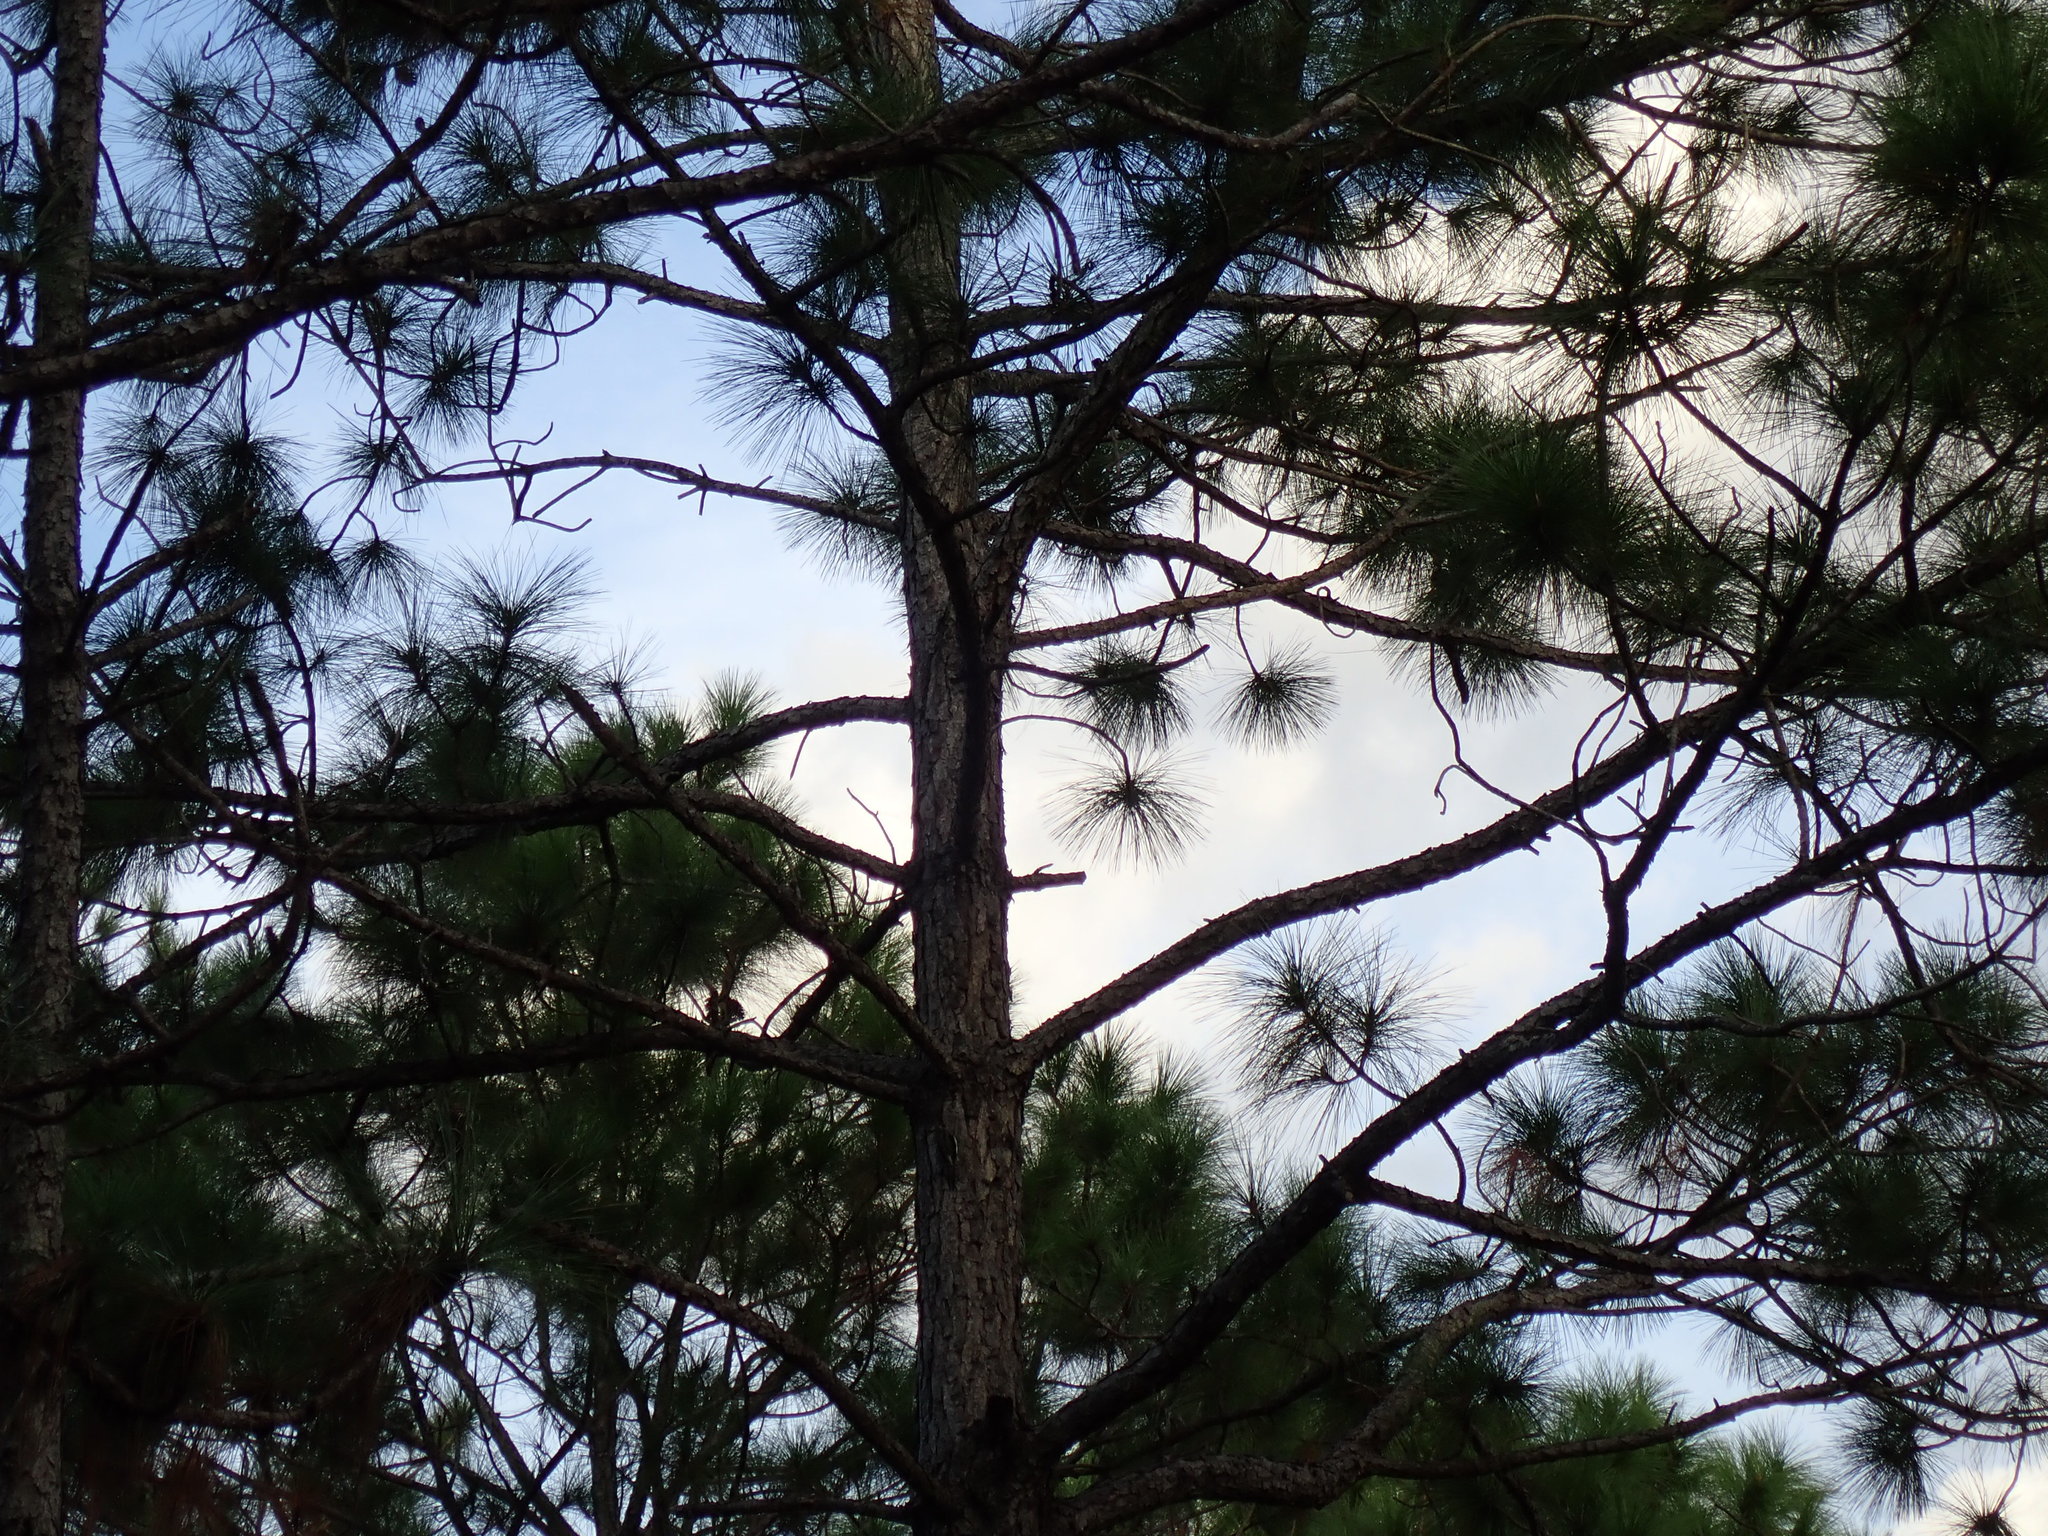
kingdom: Animalia
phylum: Chordata
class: Aves
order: Piciformes
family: Picidae
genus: Sphyrapicus
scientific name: Sphyrapicus varius
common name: Yellow-bellied sapsucker
